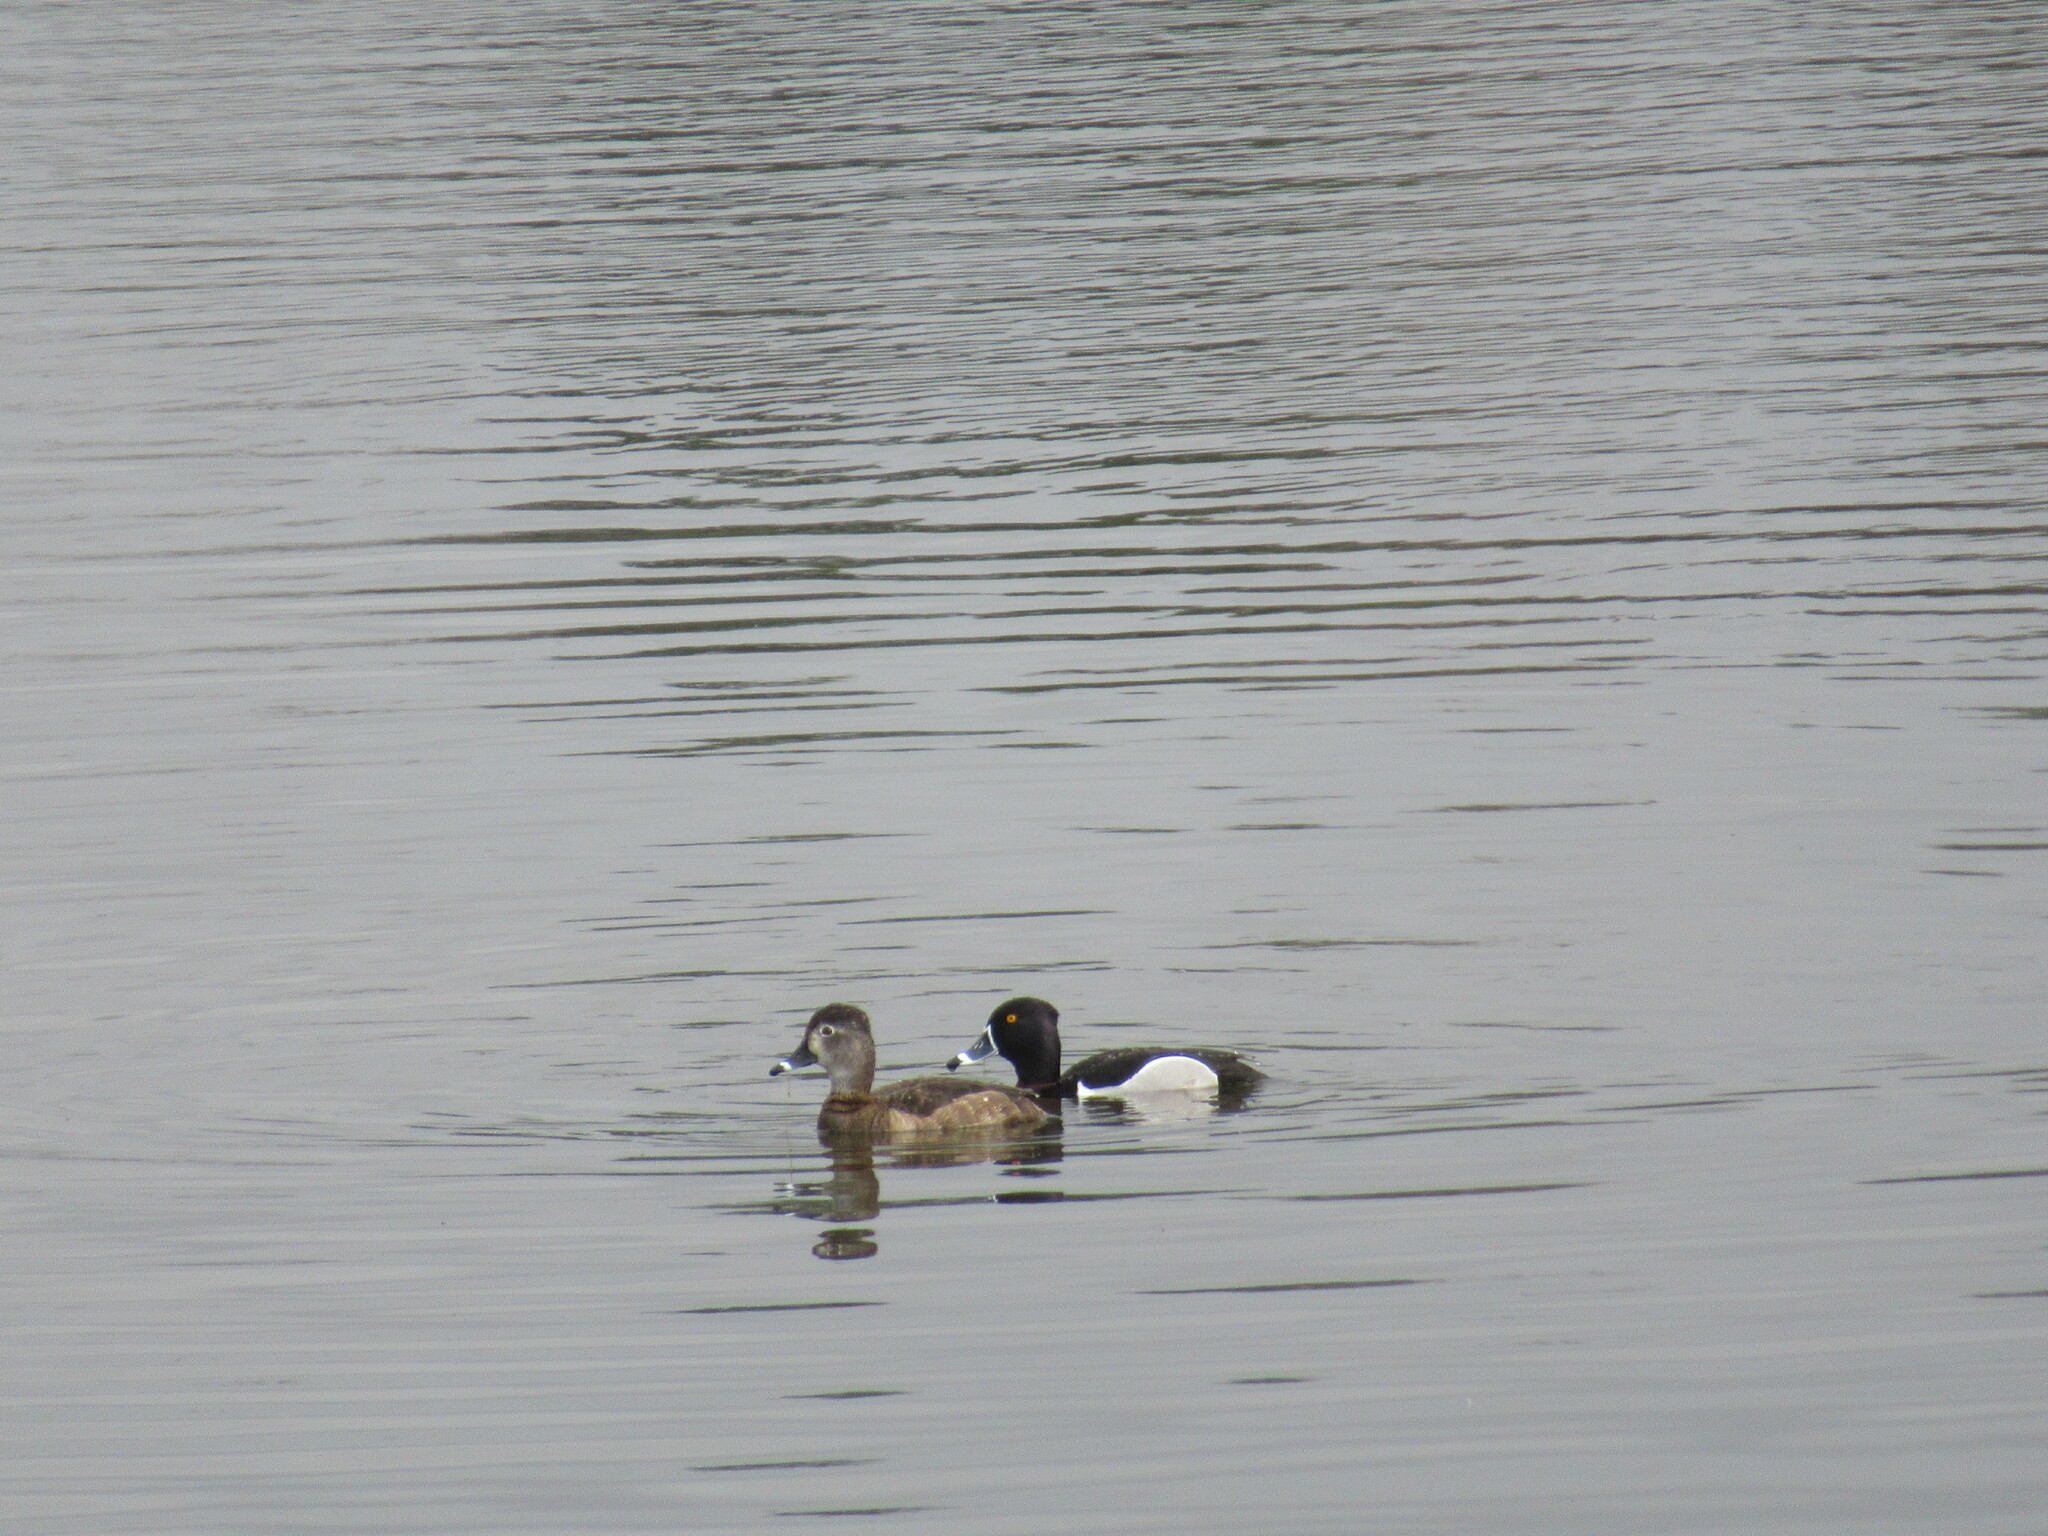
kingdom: Animalia
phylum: Chordata
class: Aves
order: Anseriformes
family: Anatidae
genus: Aythya
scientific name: Aythya collaris
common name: Ring-necked duck
